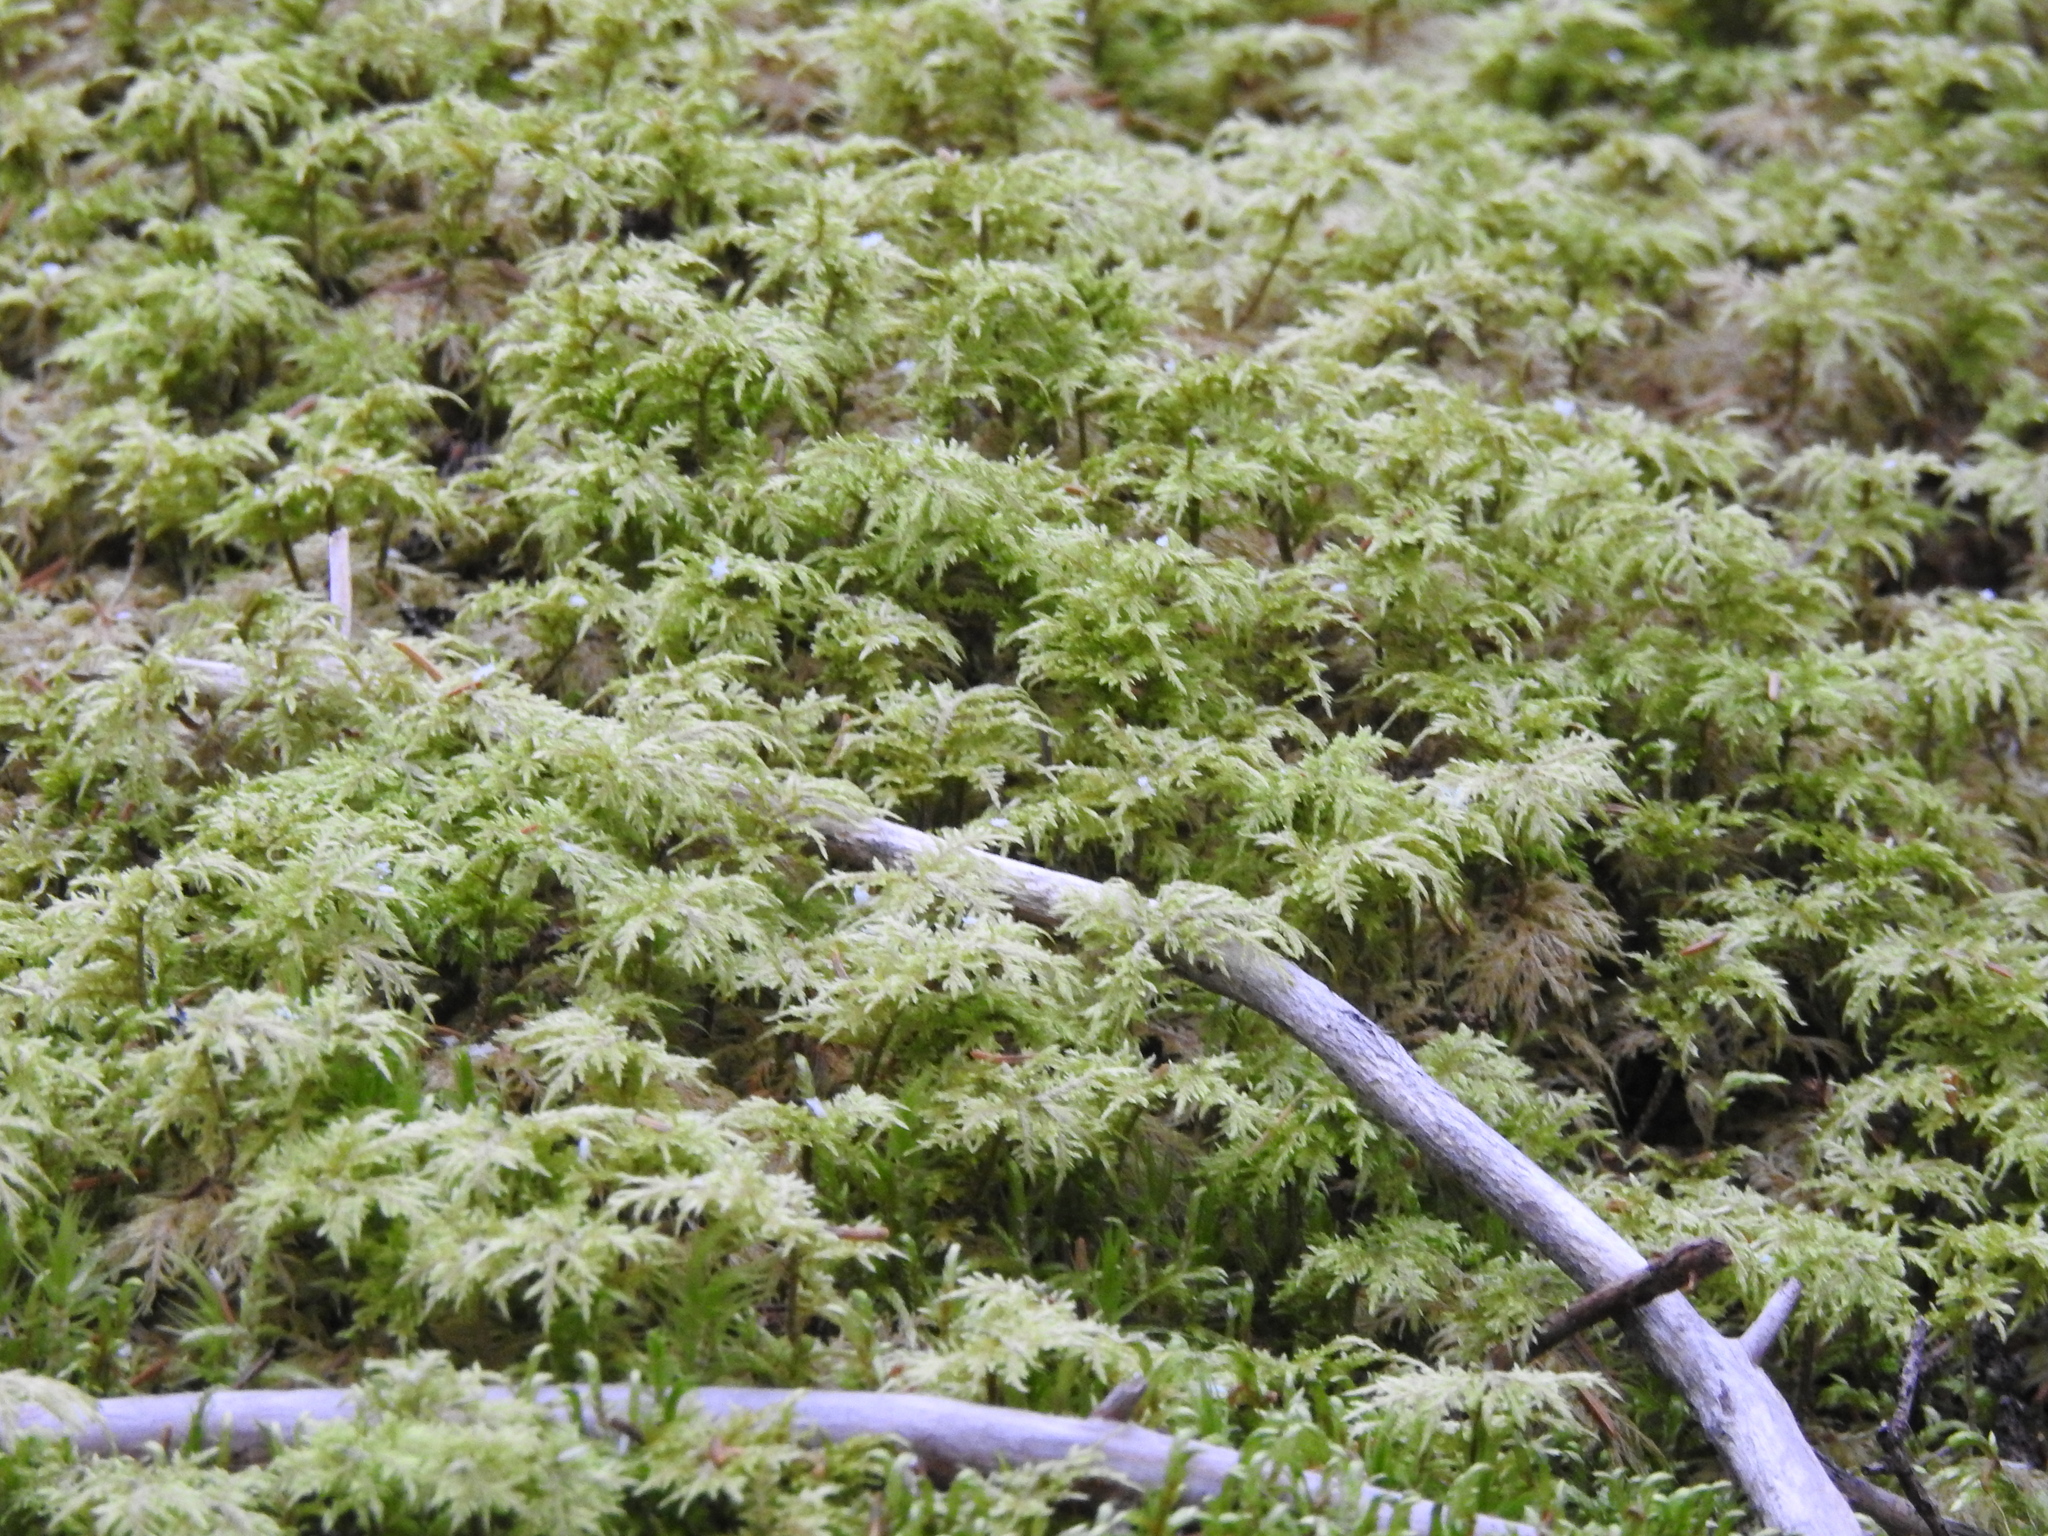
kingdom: Plantae
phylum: Bryophyta
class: Bryopsida
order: Hypnales
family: Hylocomiaceae
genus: Hylocomium
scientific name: Hylocomium splendens
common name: Stairstep moss
